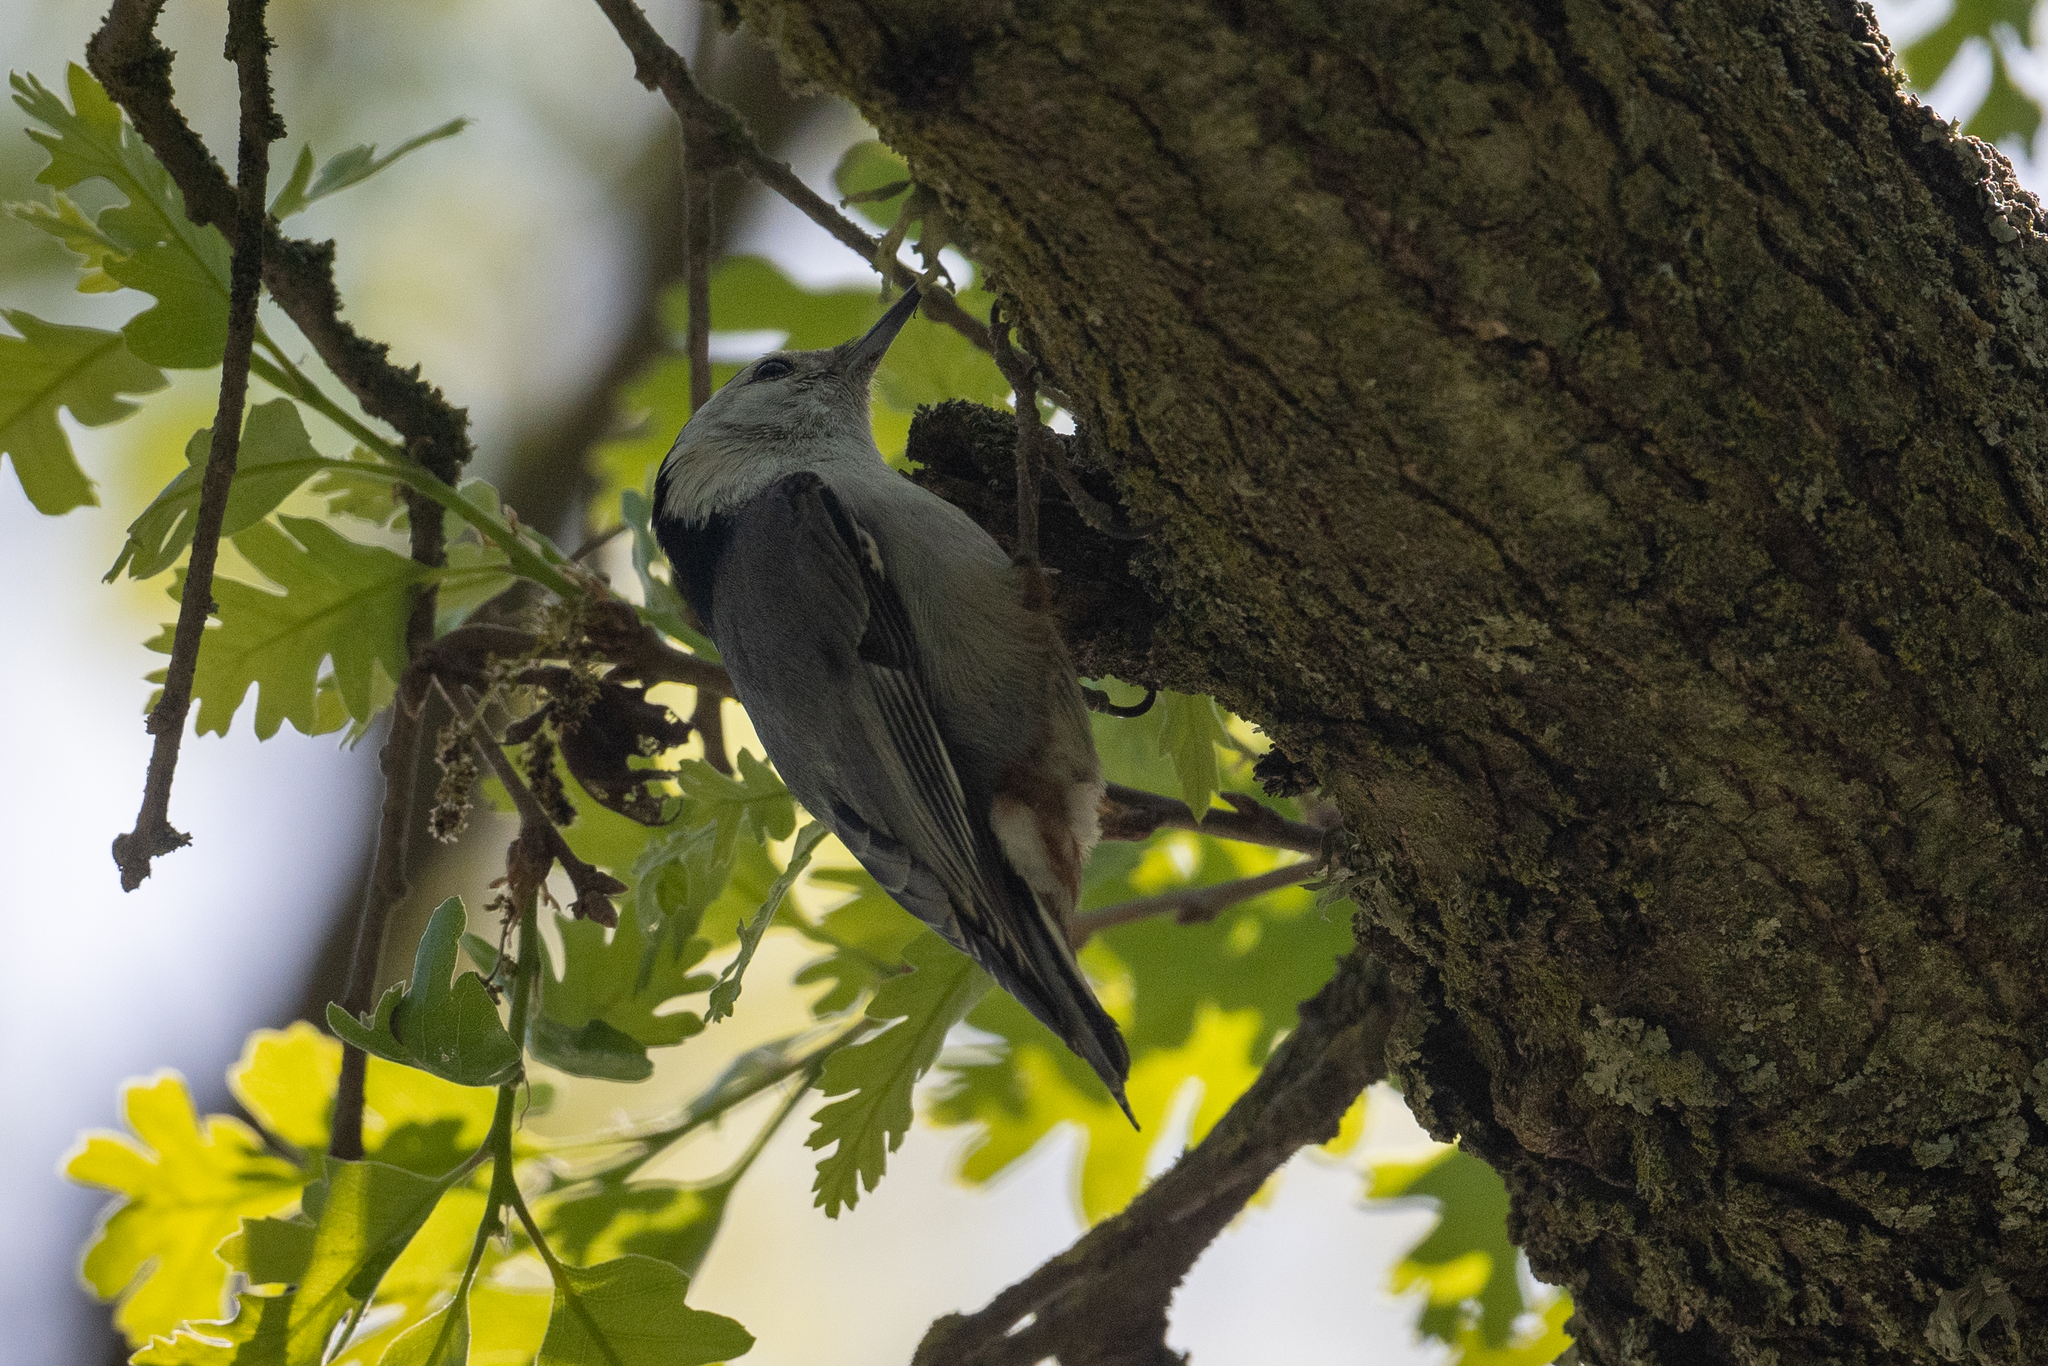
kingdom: Animalia
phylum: Chordata
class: Aves
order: Passeriformes
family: Sittidae
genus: Sitta
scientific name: Sitta carolinensis
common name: White-breasted nuthatch
